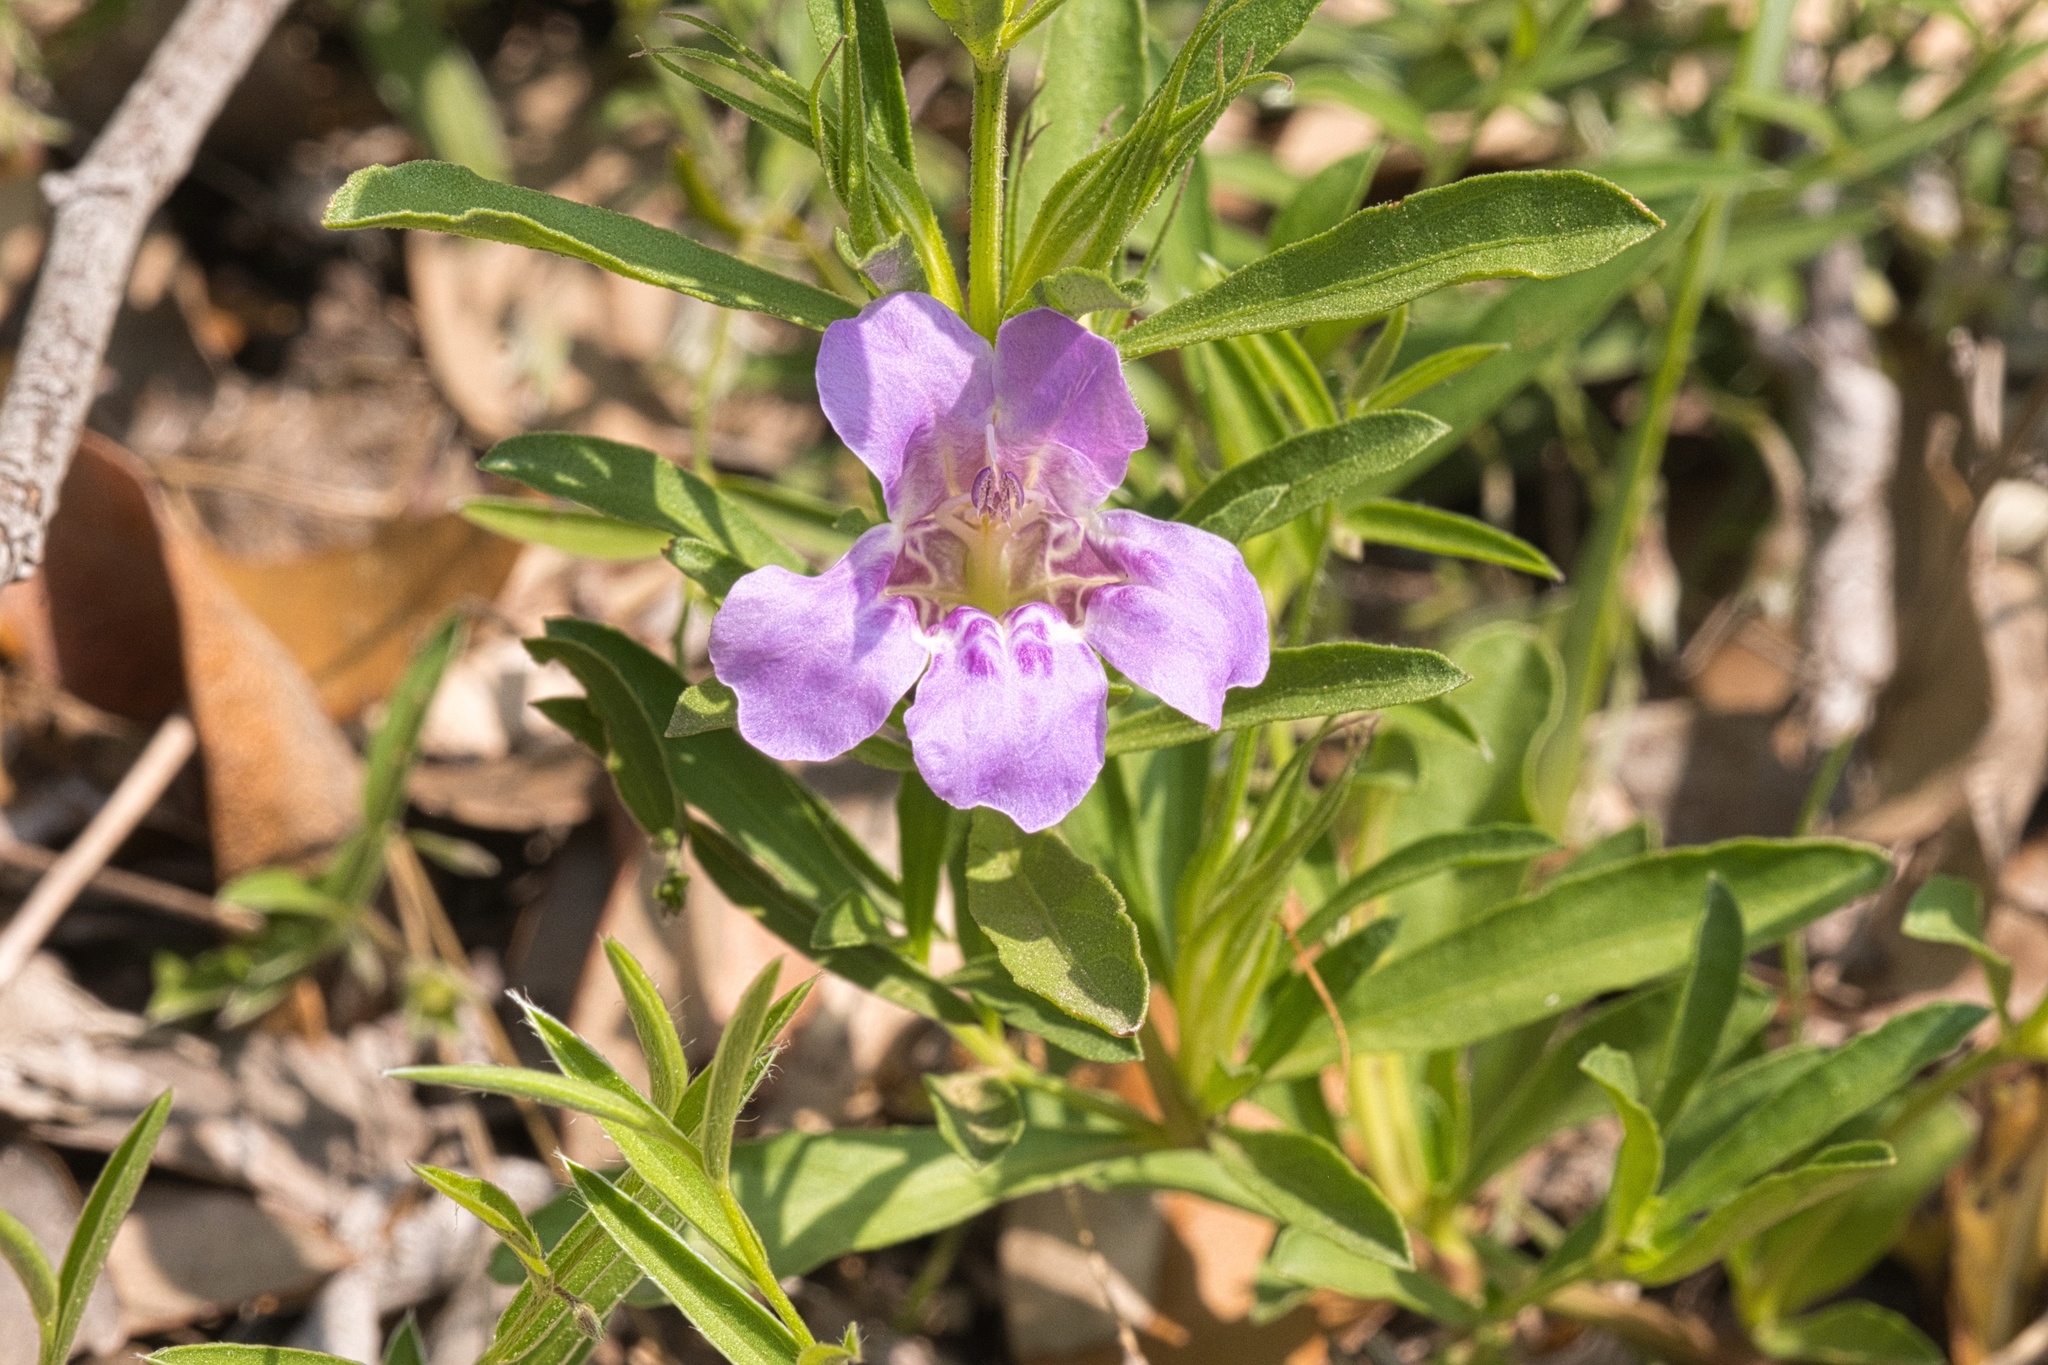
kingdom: Plantae
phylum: Tracheophyta
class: Magnoliopsida
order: Lamiales
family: Acanthaceae
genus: Dyschoriste
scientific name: Dyschoriste linearis
